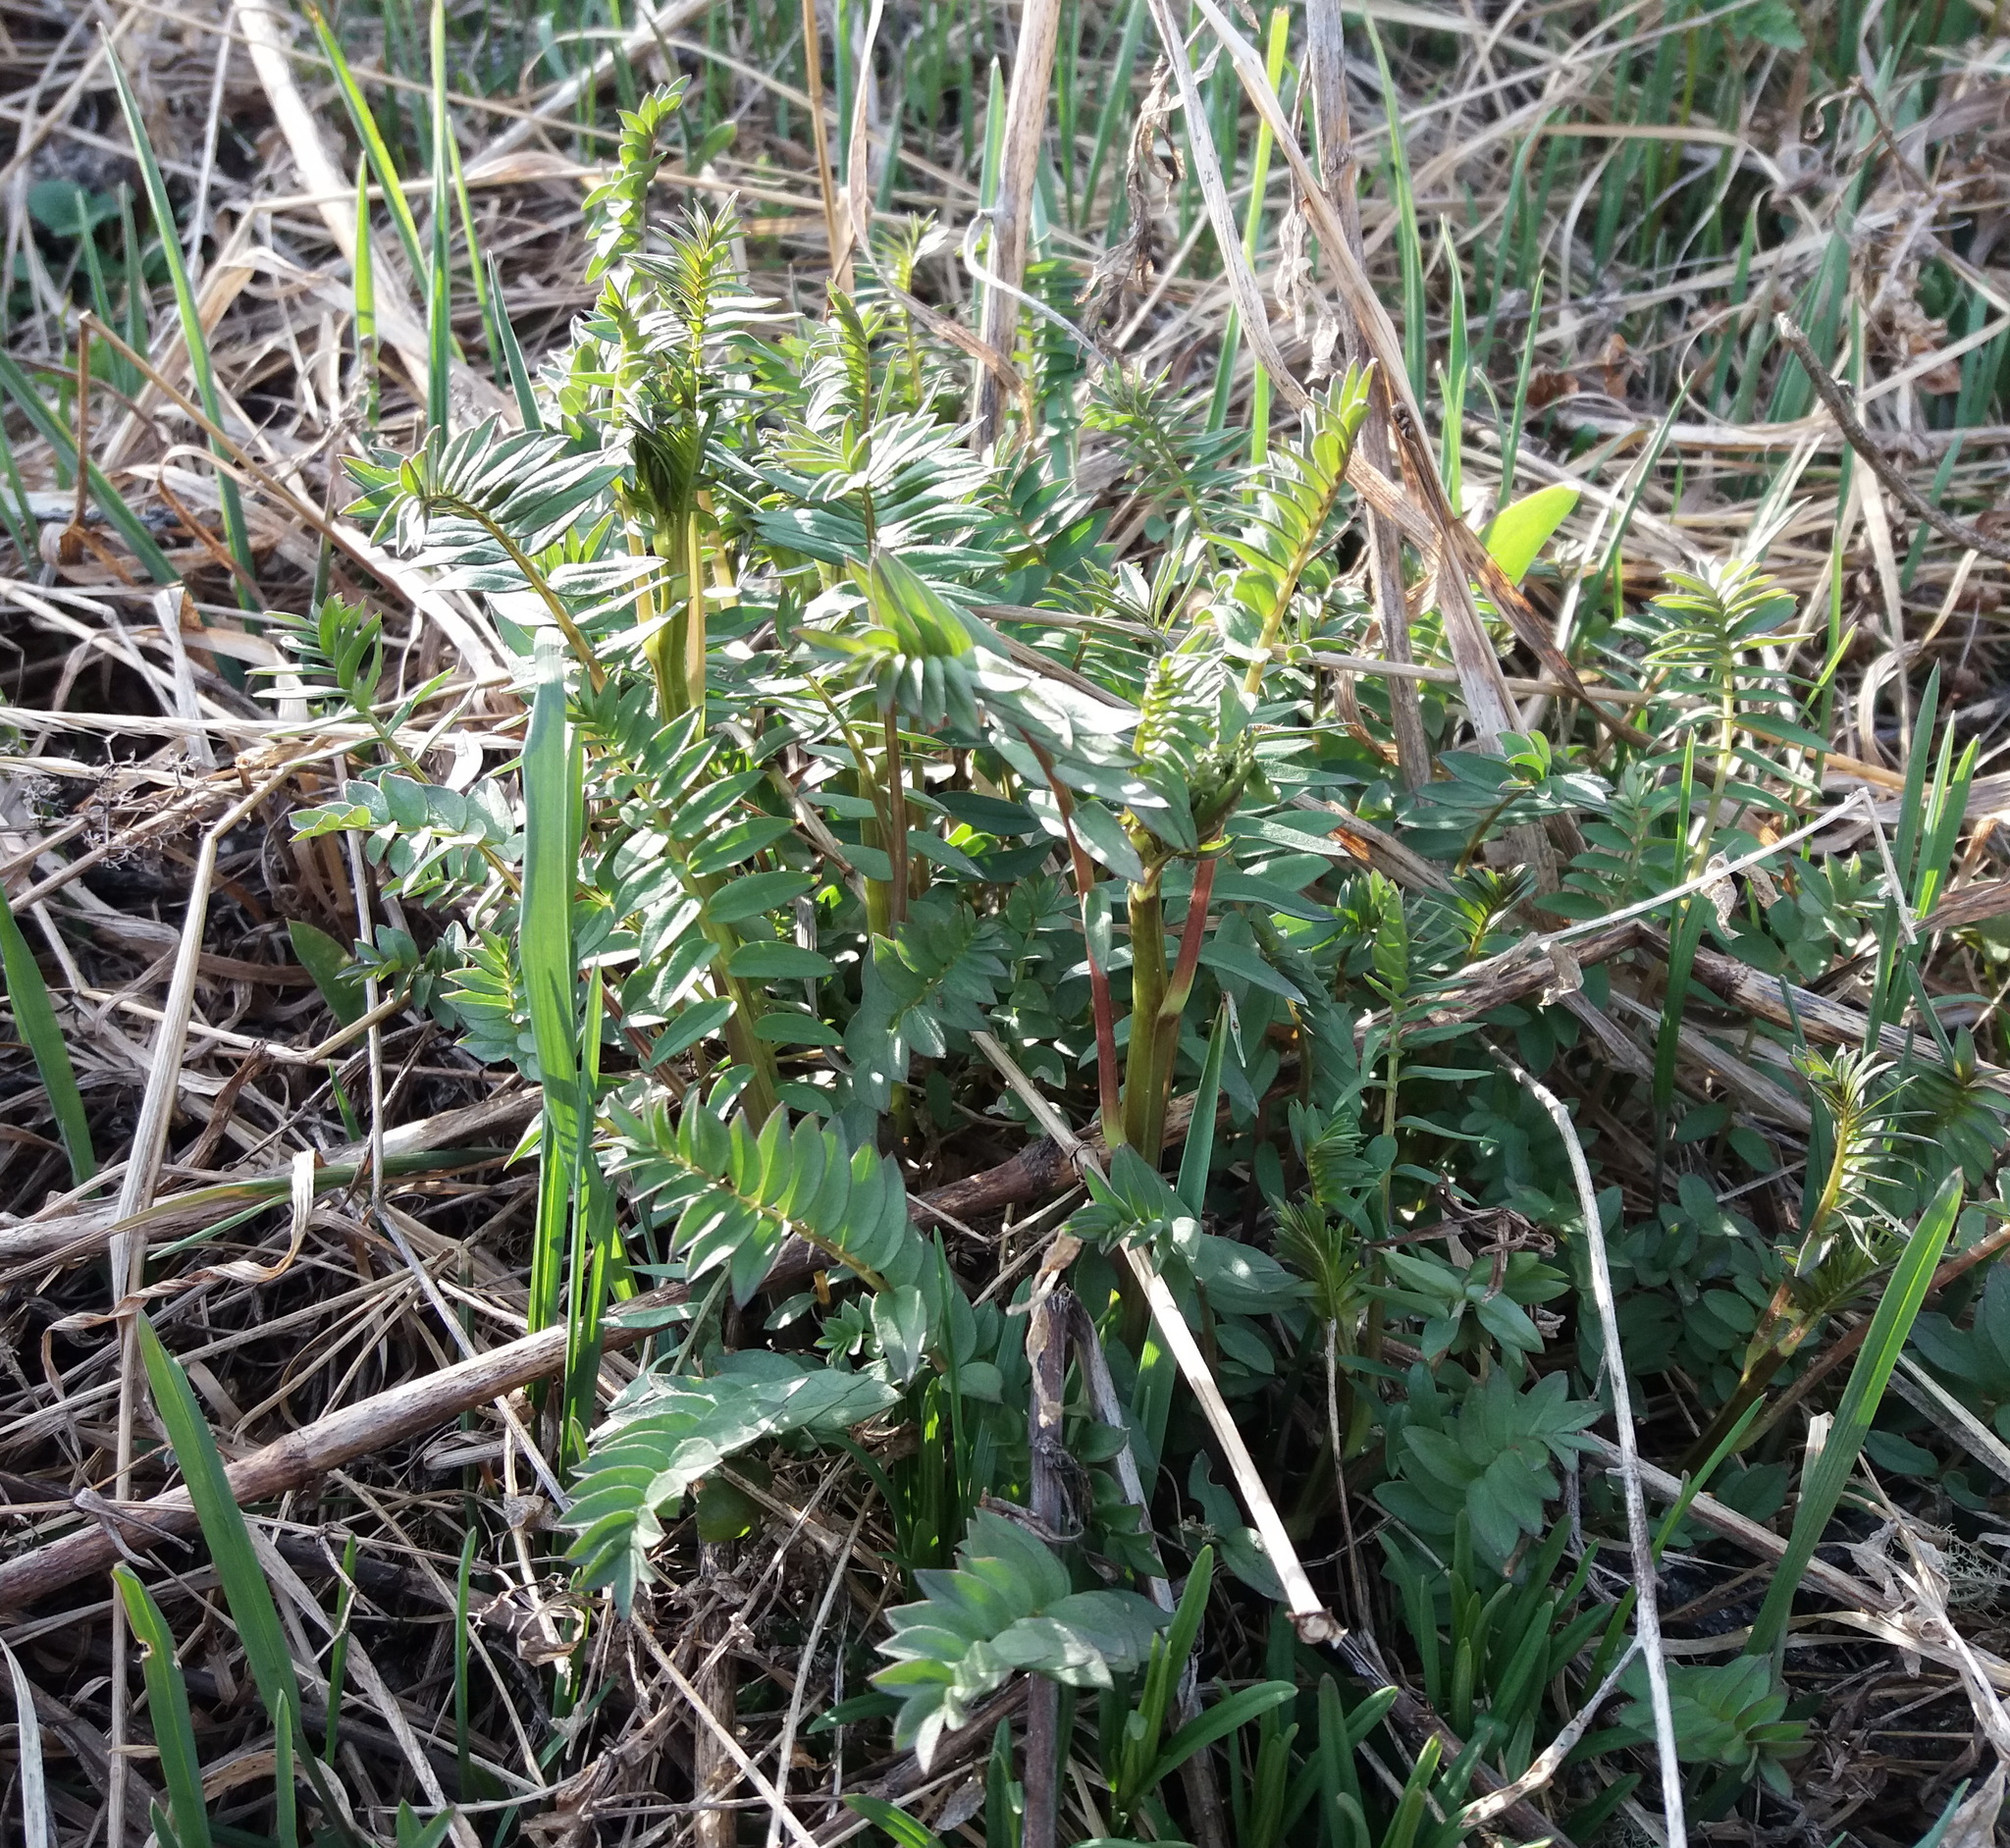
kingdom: Plantae
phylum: Tracheophyta
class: Magnoliopsida
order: Ericales
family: Polemoniaceae
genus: Polemonium
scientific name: Polemonium caeruleum
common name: Jacob's-ladder
